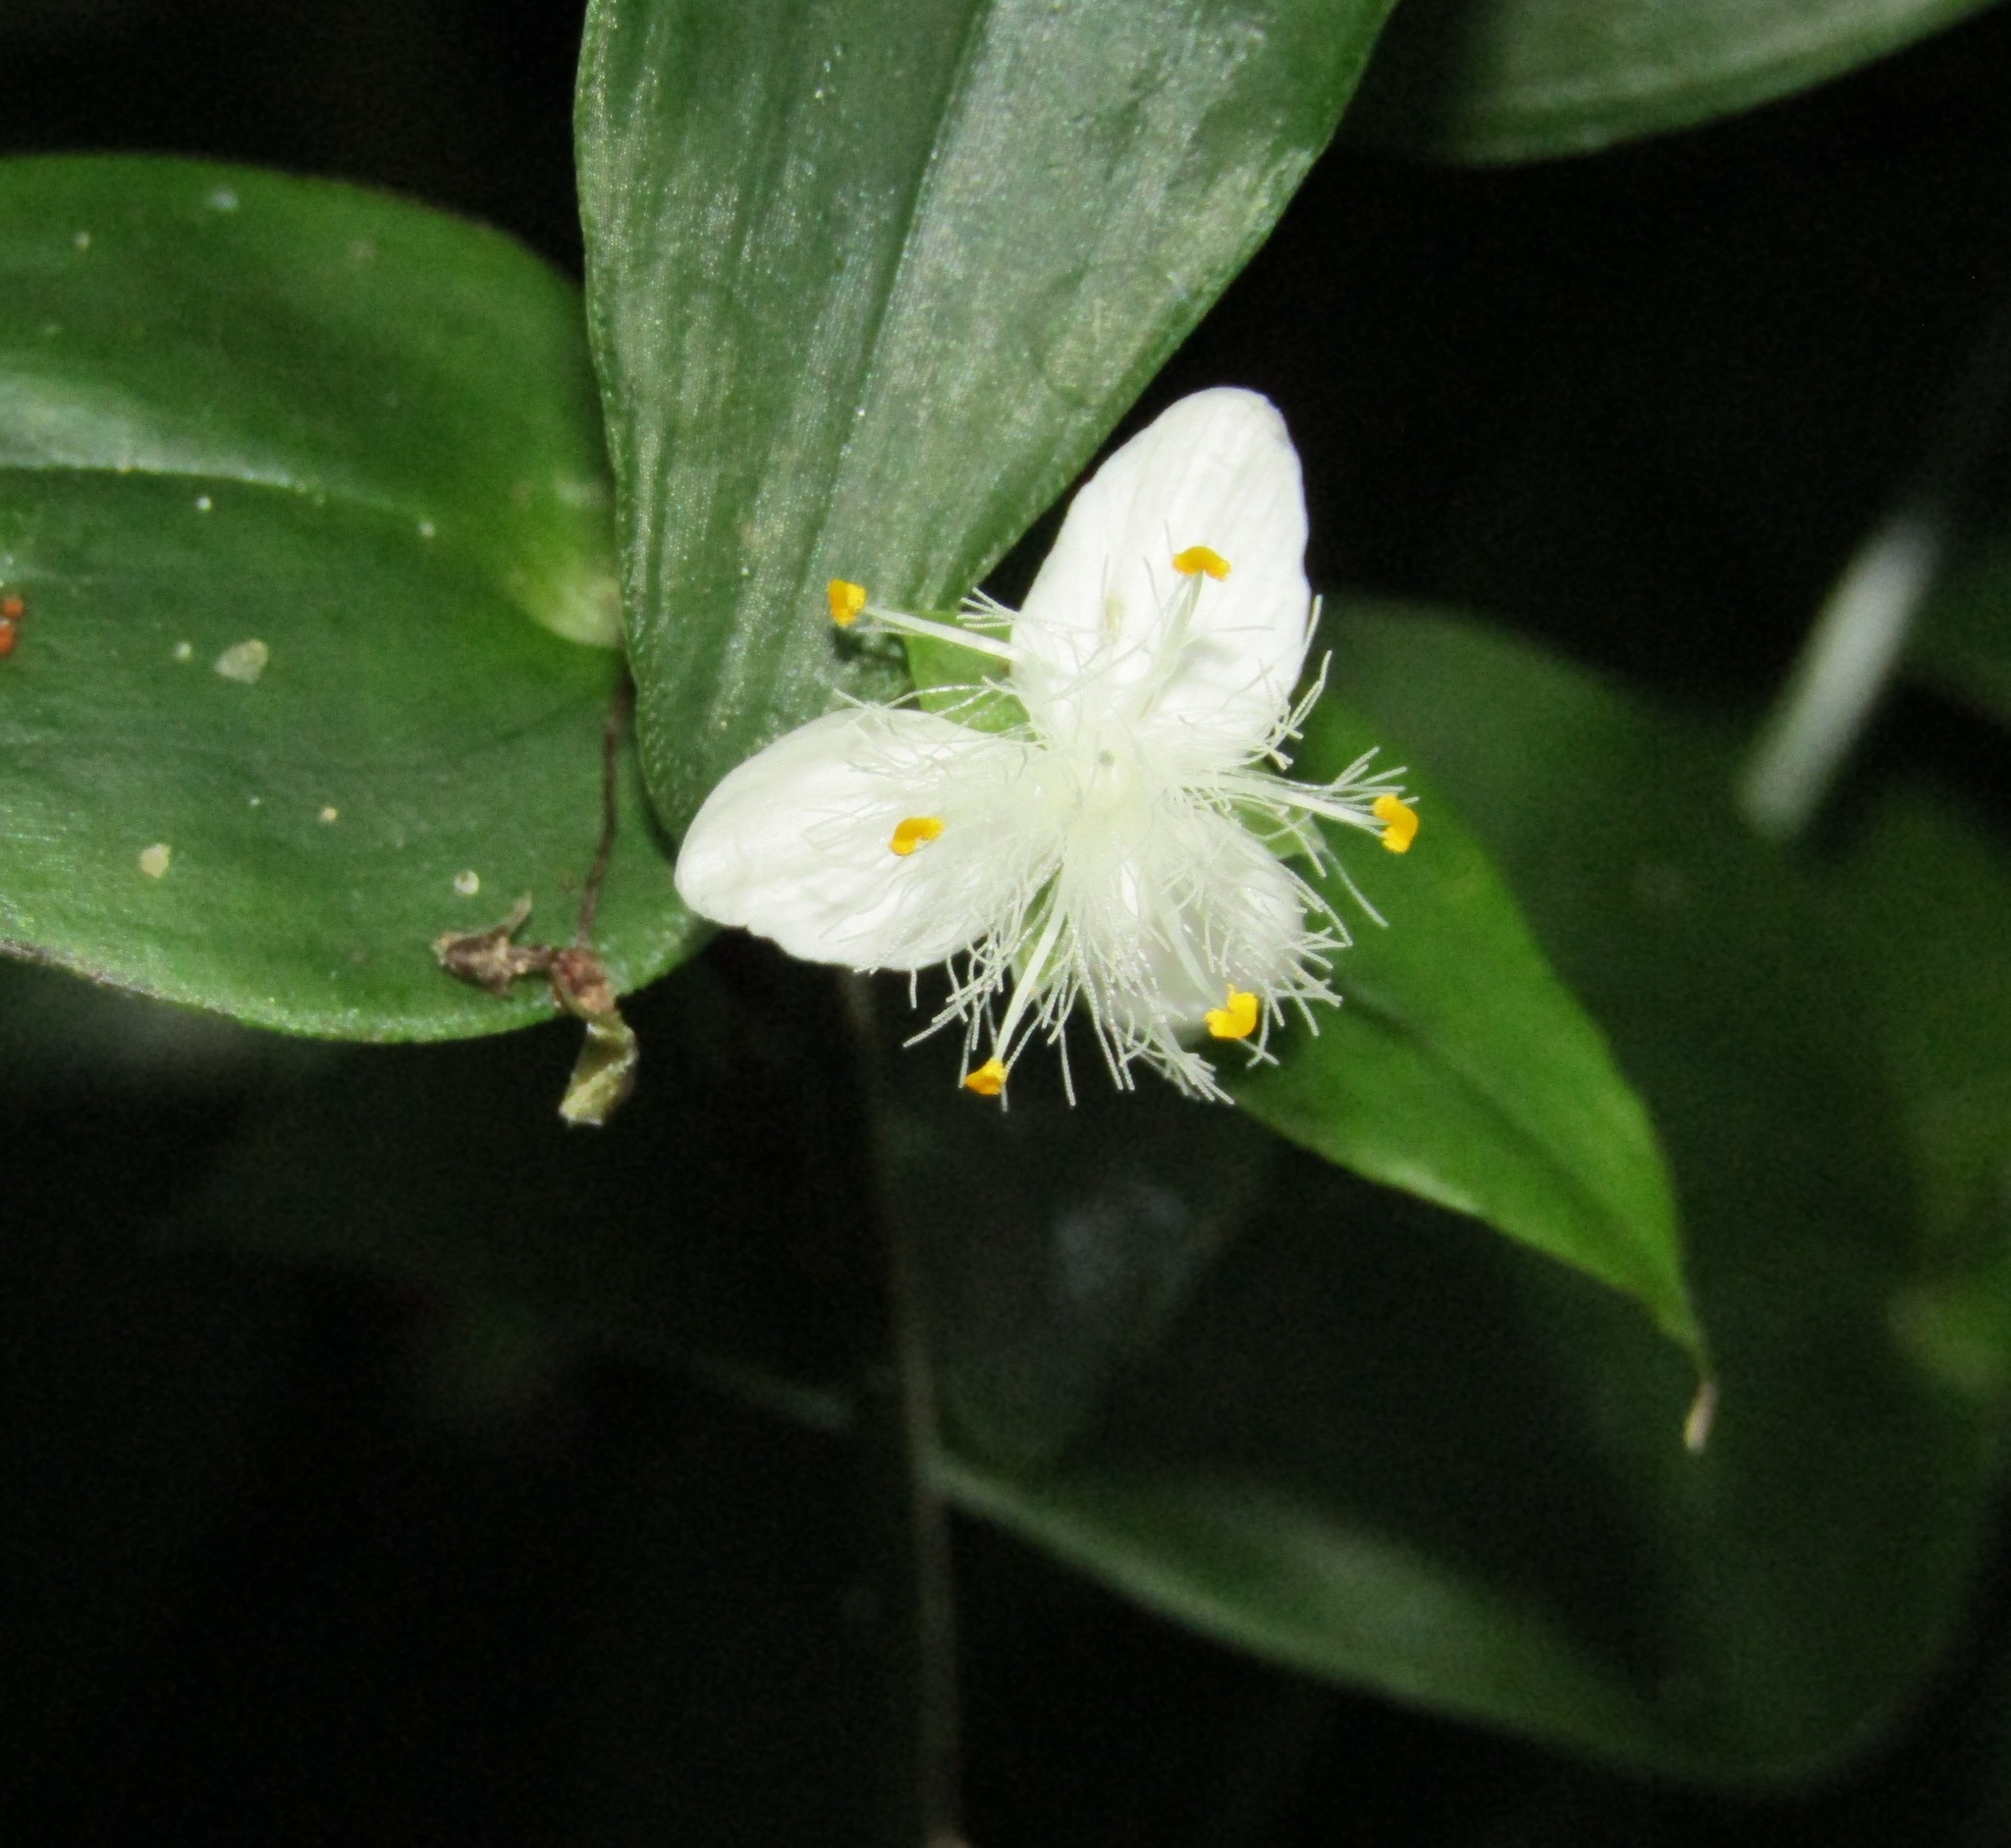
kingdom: Plantae
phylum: Tracheophyta
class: Liliopsida
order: Commelinales
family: Commelinaceae
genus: Tradescantia
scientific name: Tradescantia fluminensis
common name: Wandering-jew
